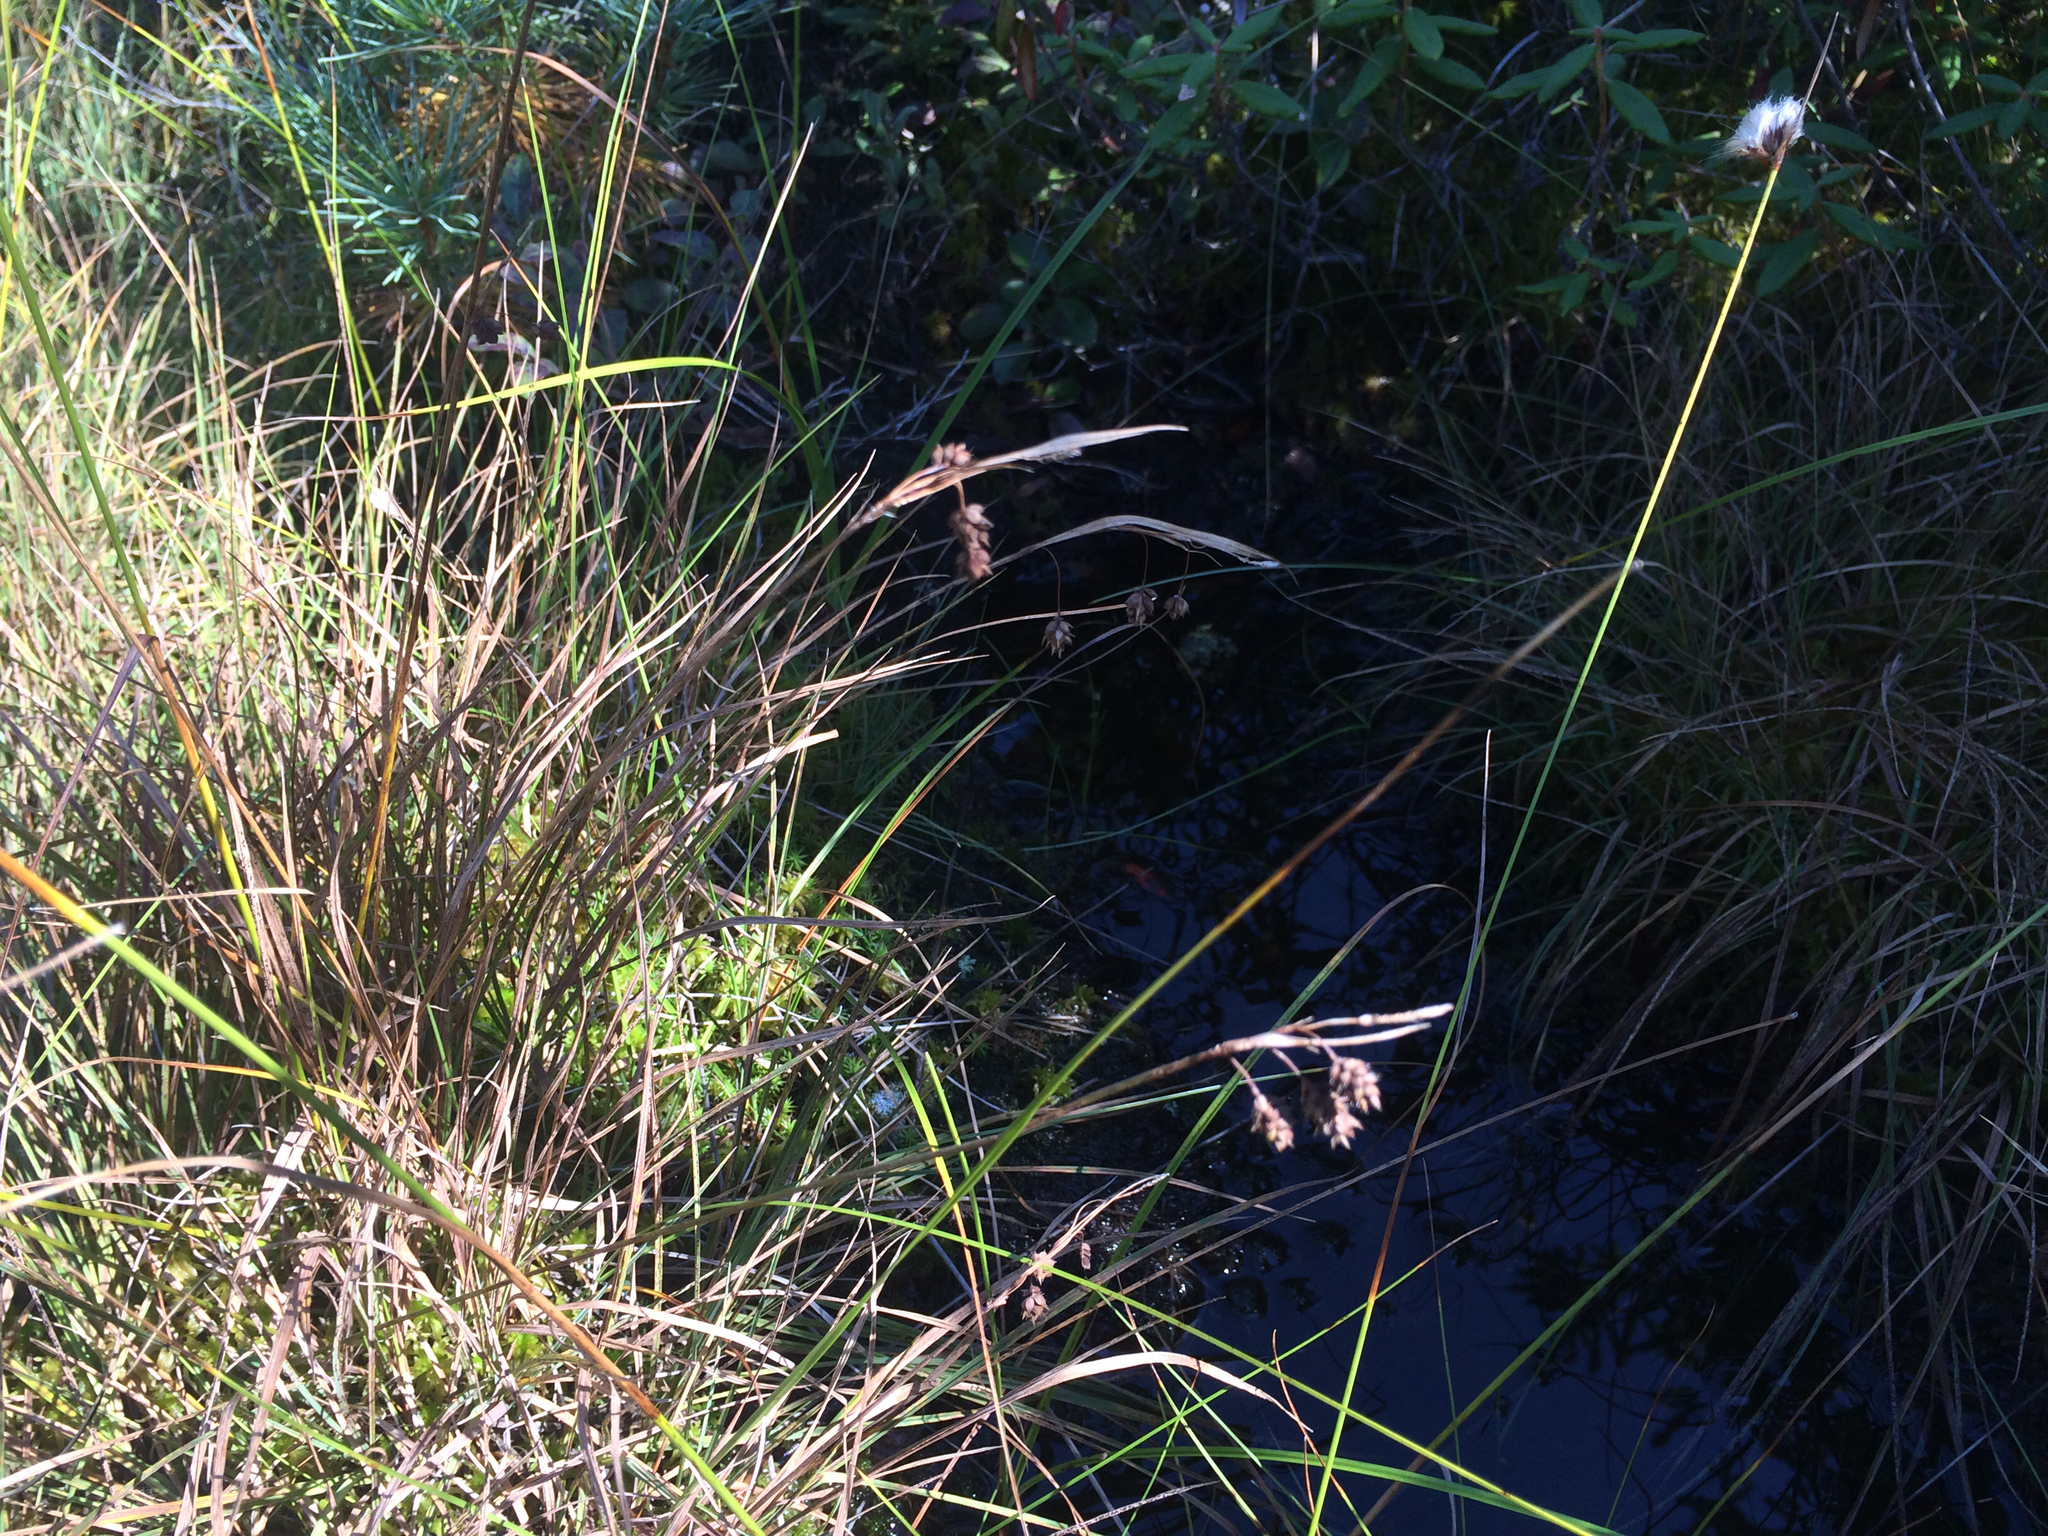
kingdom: Plantae
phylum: Tracheophyta
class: Liliopsida
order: Poales
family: Cyperaceae
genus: Carex
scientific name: Carex magellanica
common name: Bog sedge
